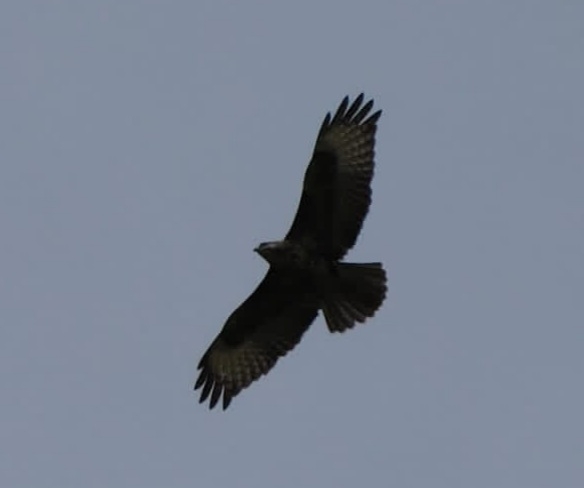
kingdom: Animalia
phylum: Chordata
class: Aves
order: Accipitriformes
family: Accipitridae
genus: Buteo
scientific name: Buteo buteo
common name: Common buzzard
